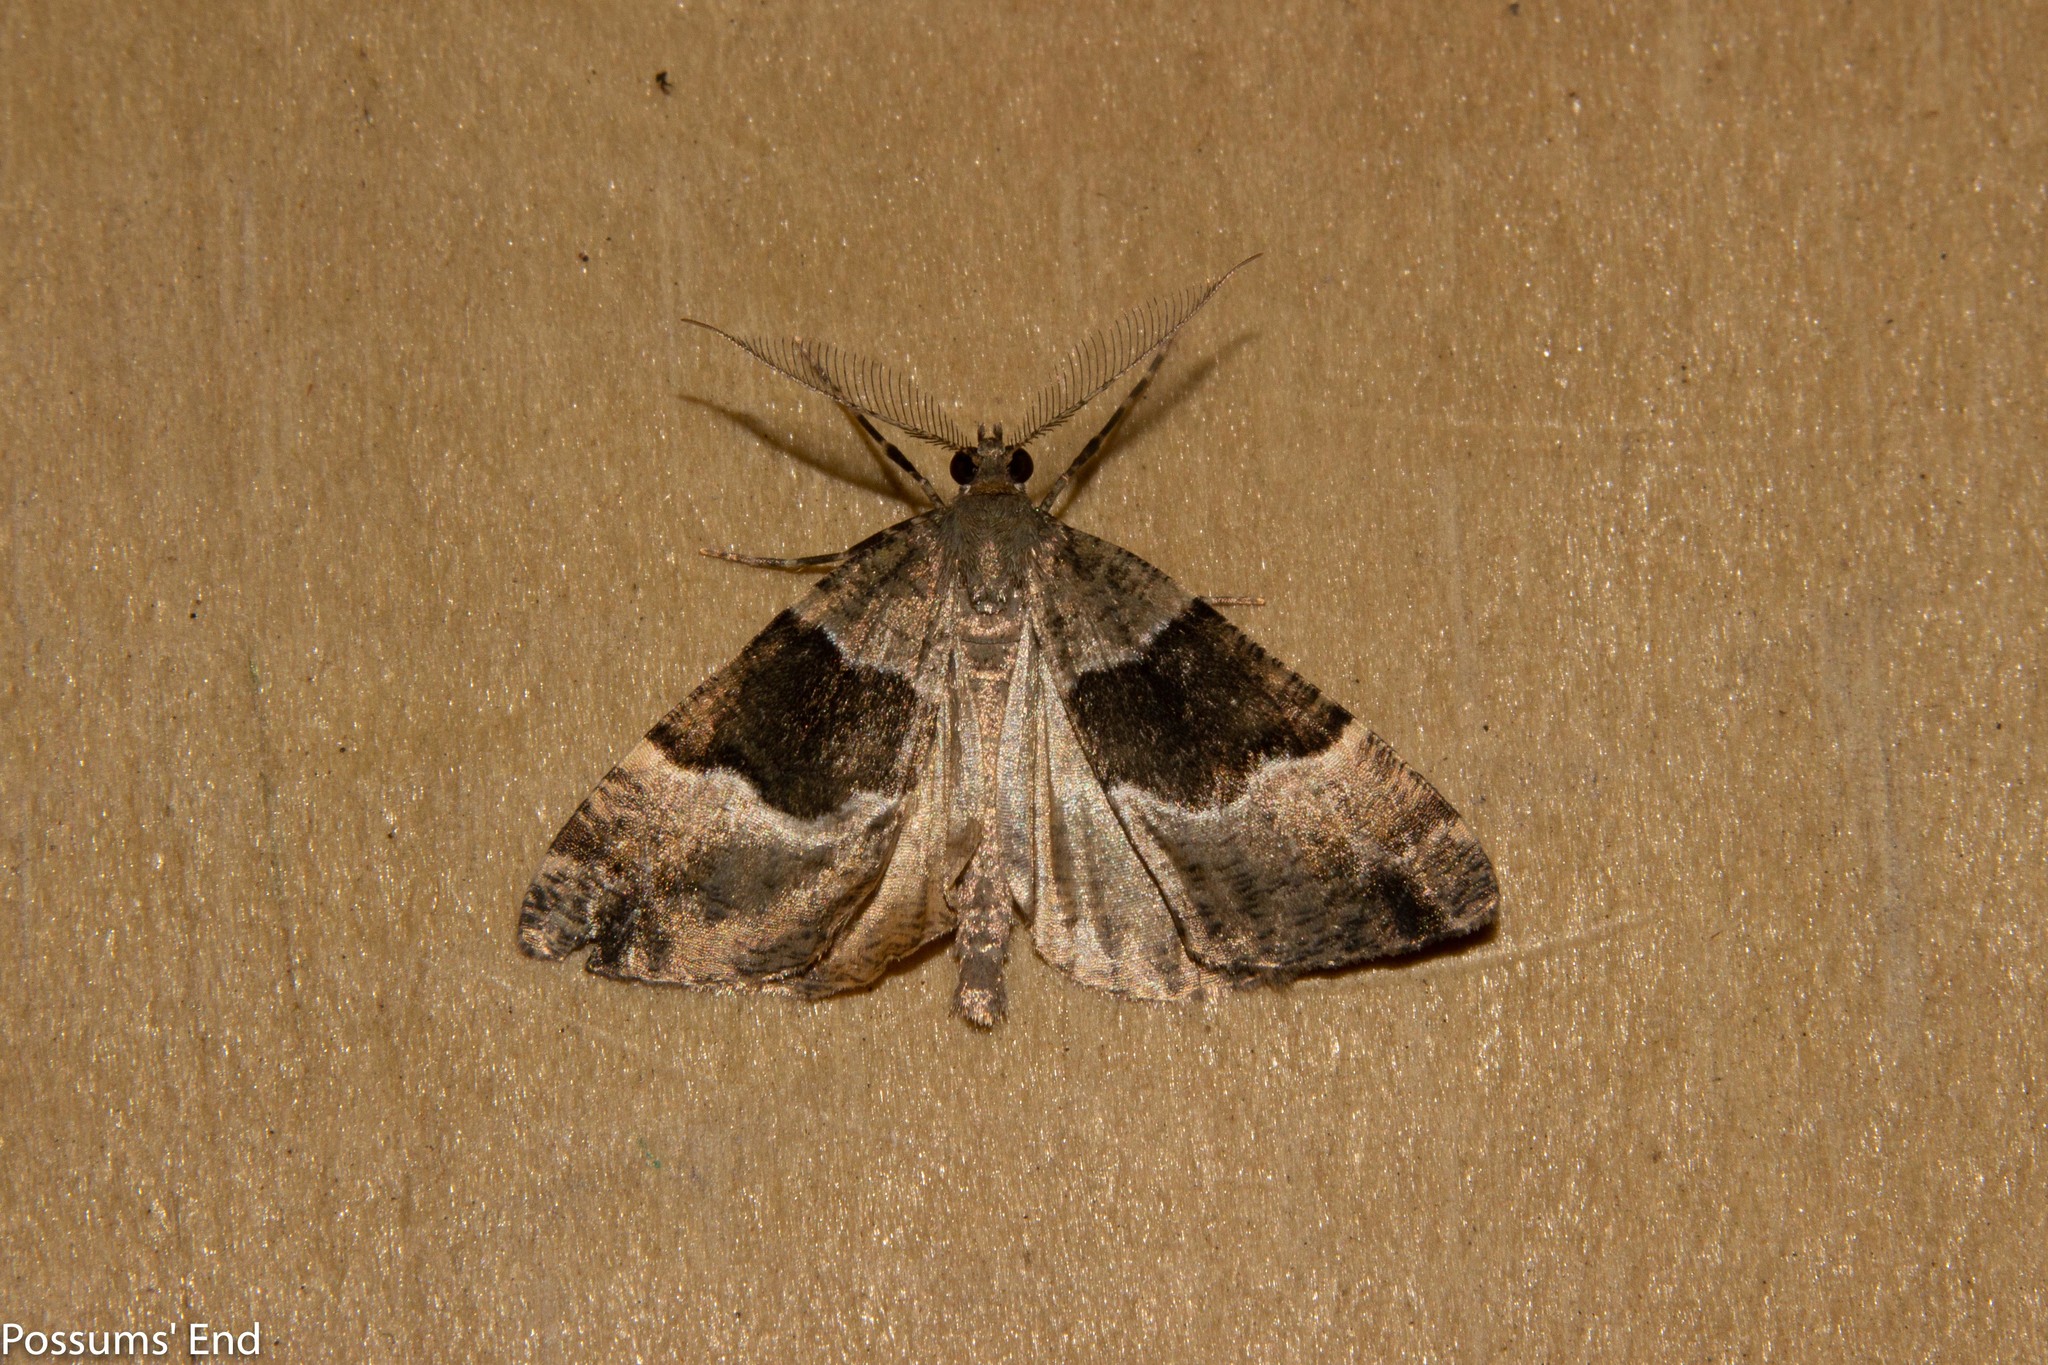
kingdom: Animalia
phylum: Arthropoda
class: Insecta
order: Lepidoptera
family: Geometridae
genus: Pseudocoremia
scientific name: Pseudocoremia
